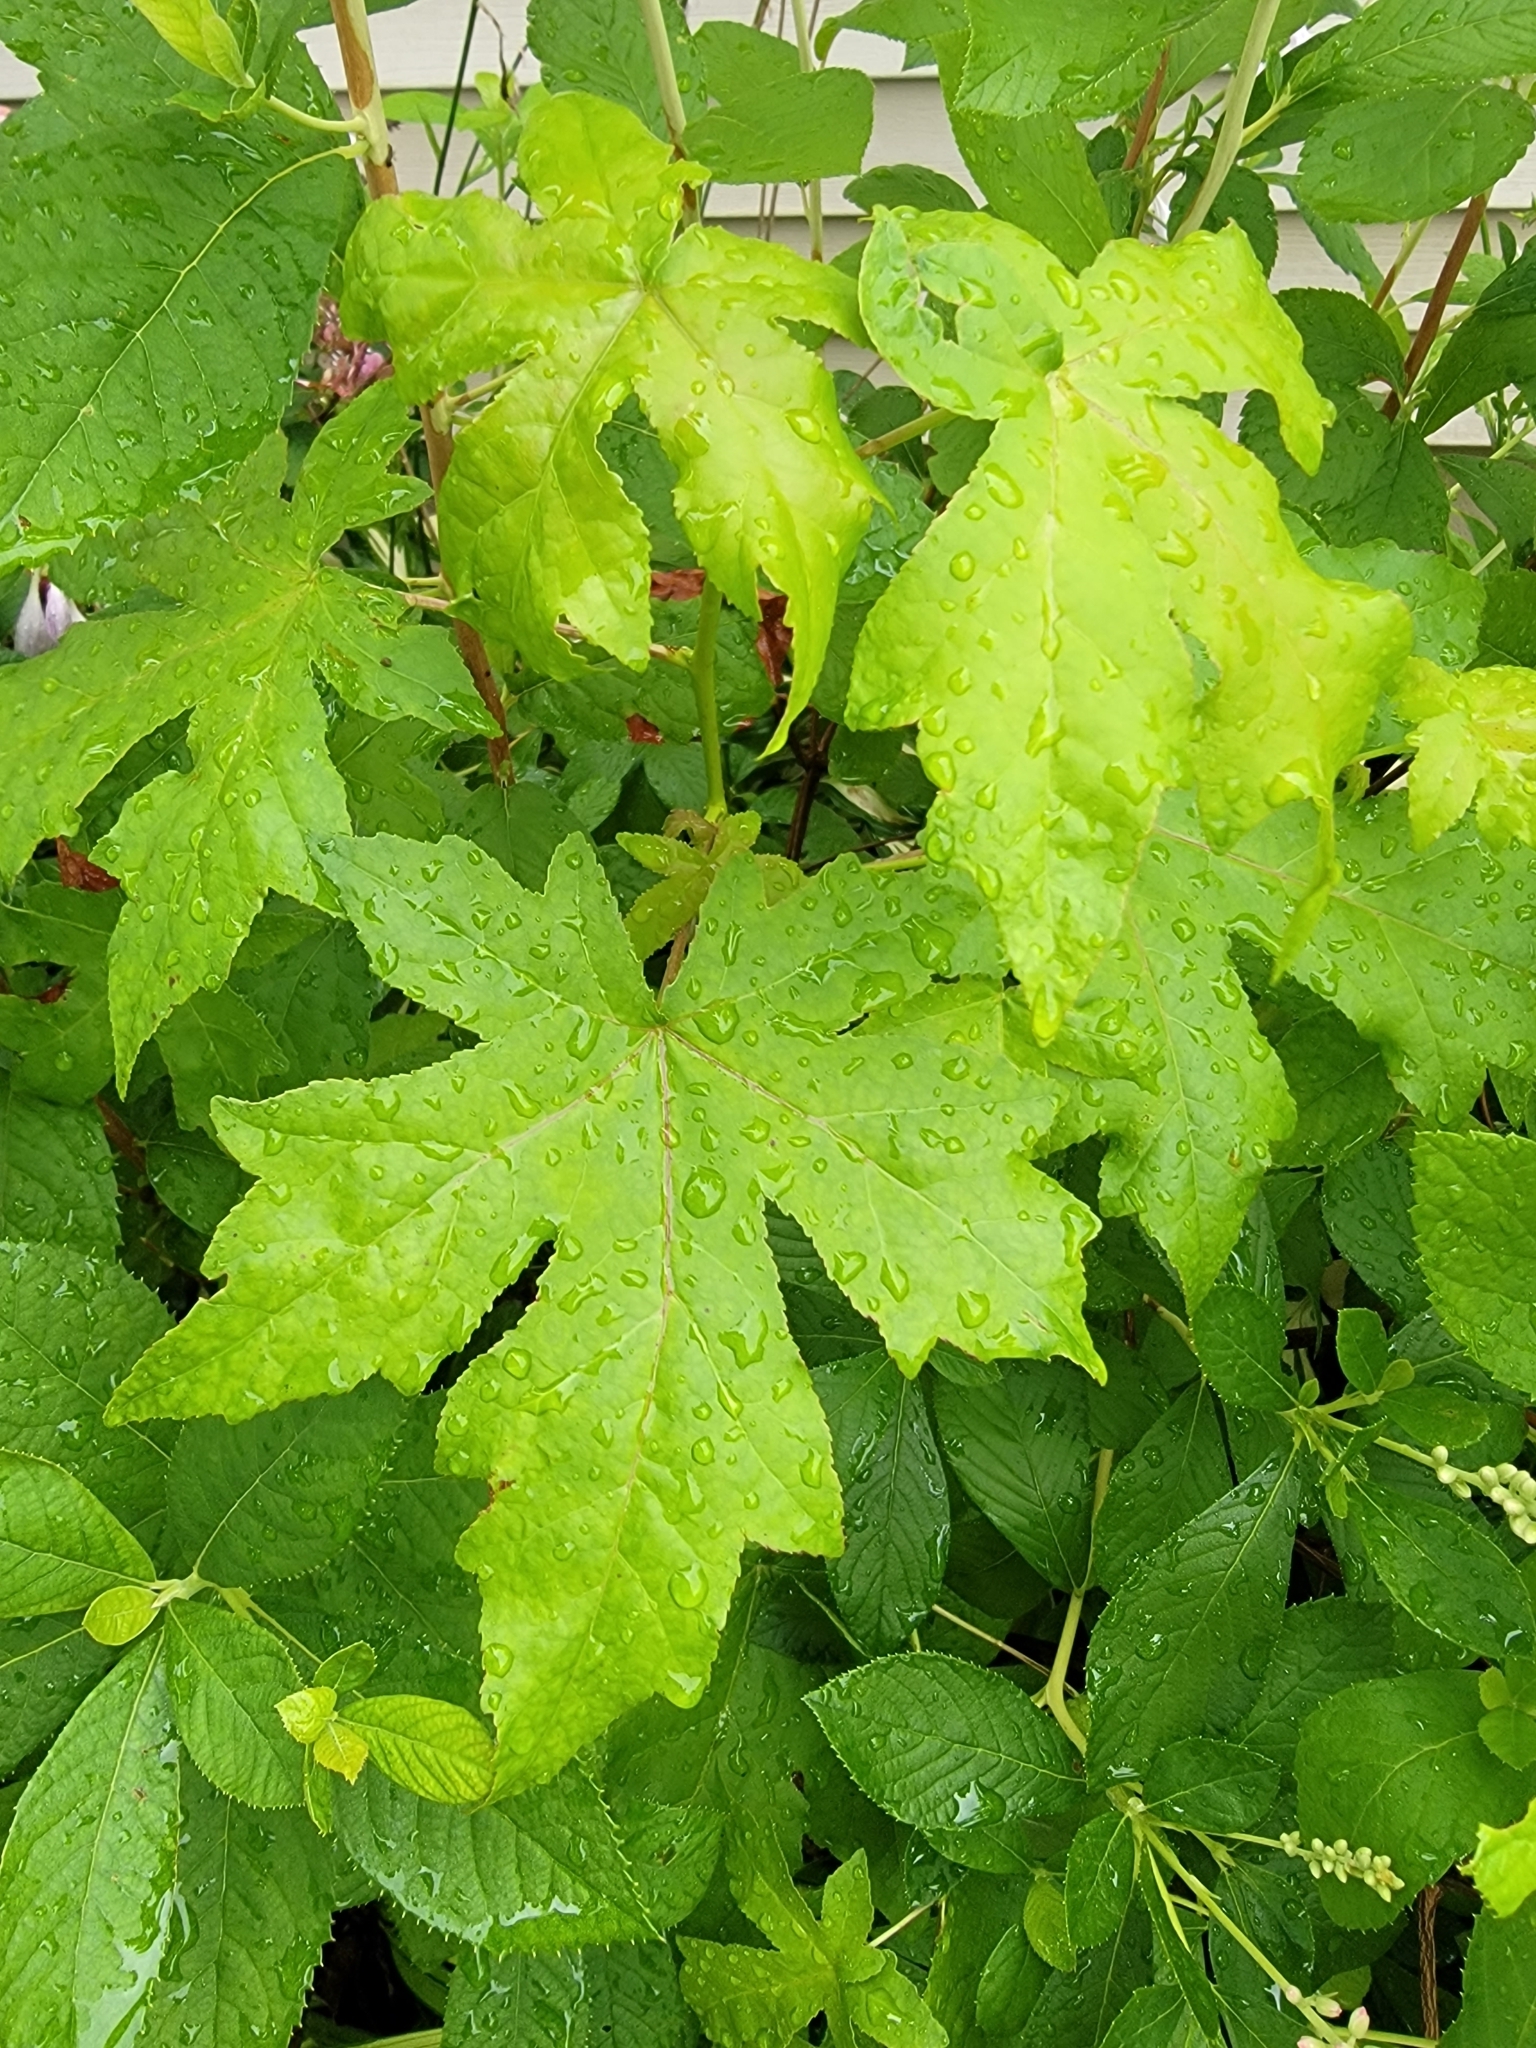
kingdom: Plantae
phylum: Tracheophyta
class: Magnoliopsida
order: Saxifragales
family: Altingiaceae
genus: Liquidambar
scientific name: Liquidambar styraciflua
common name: Sweet gum
